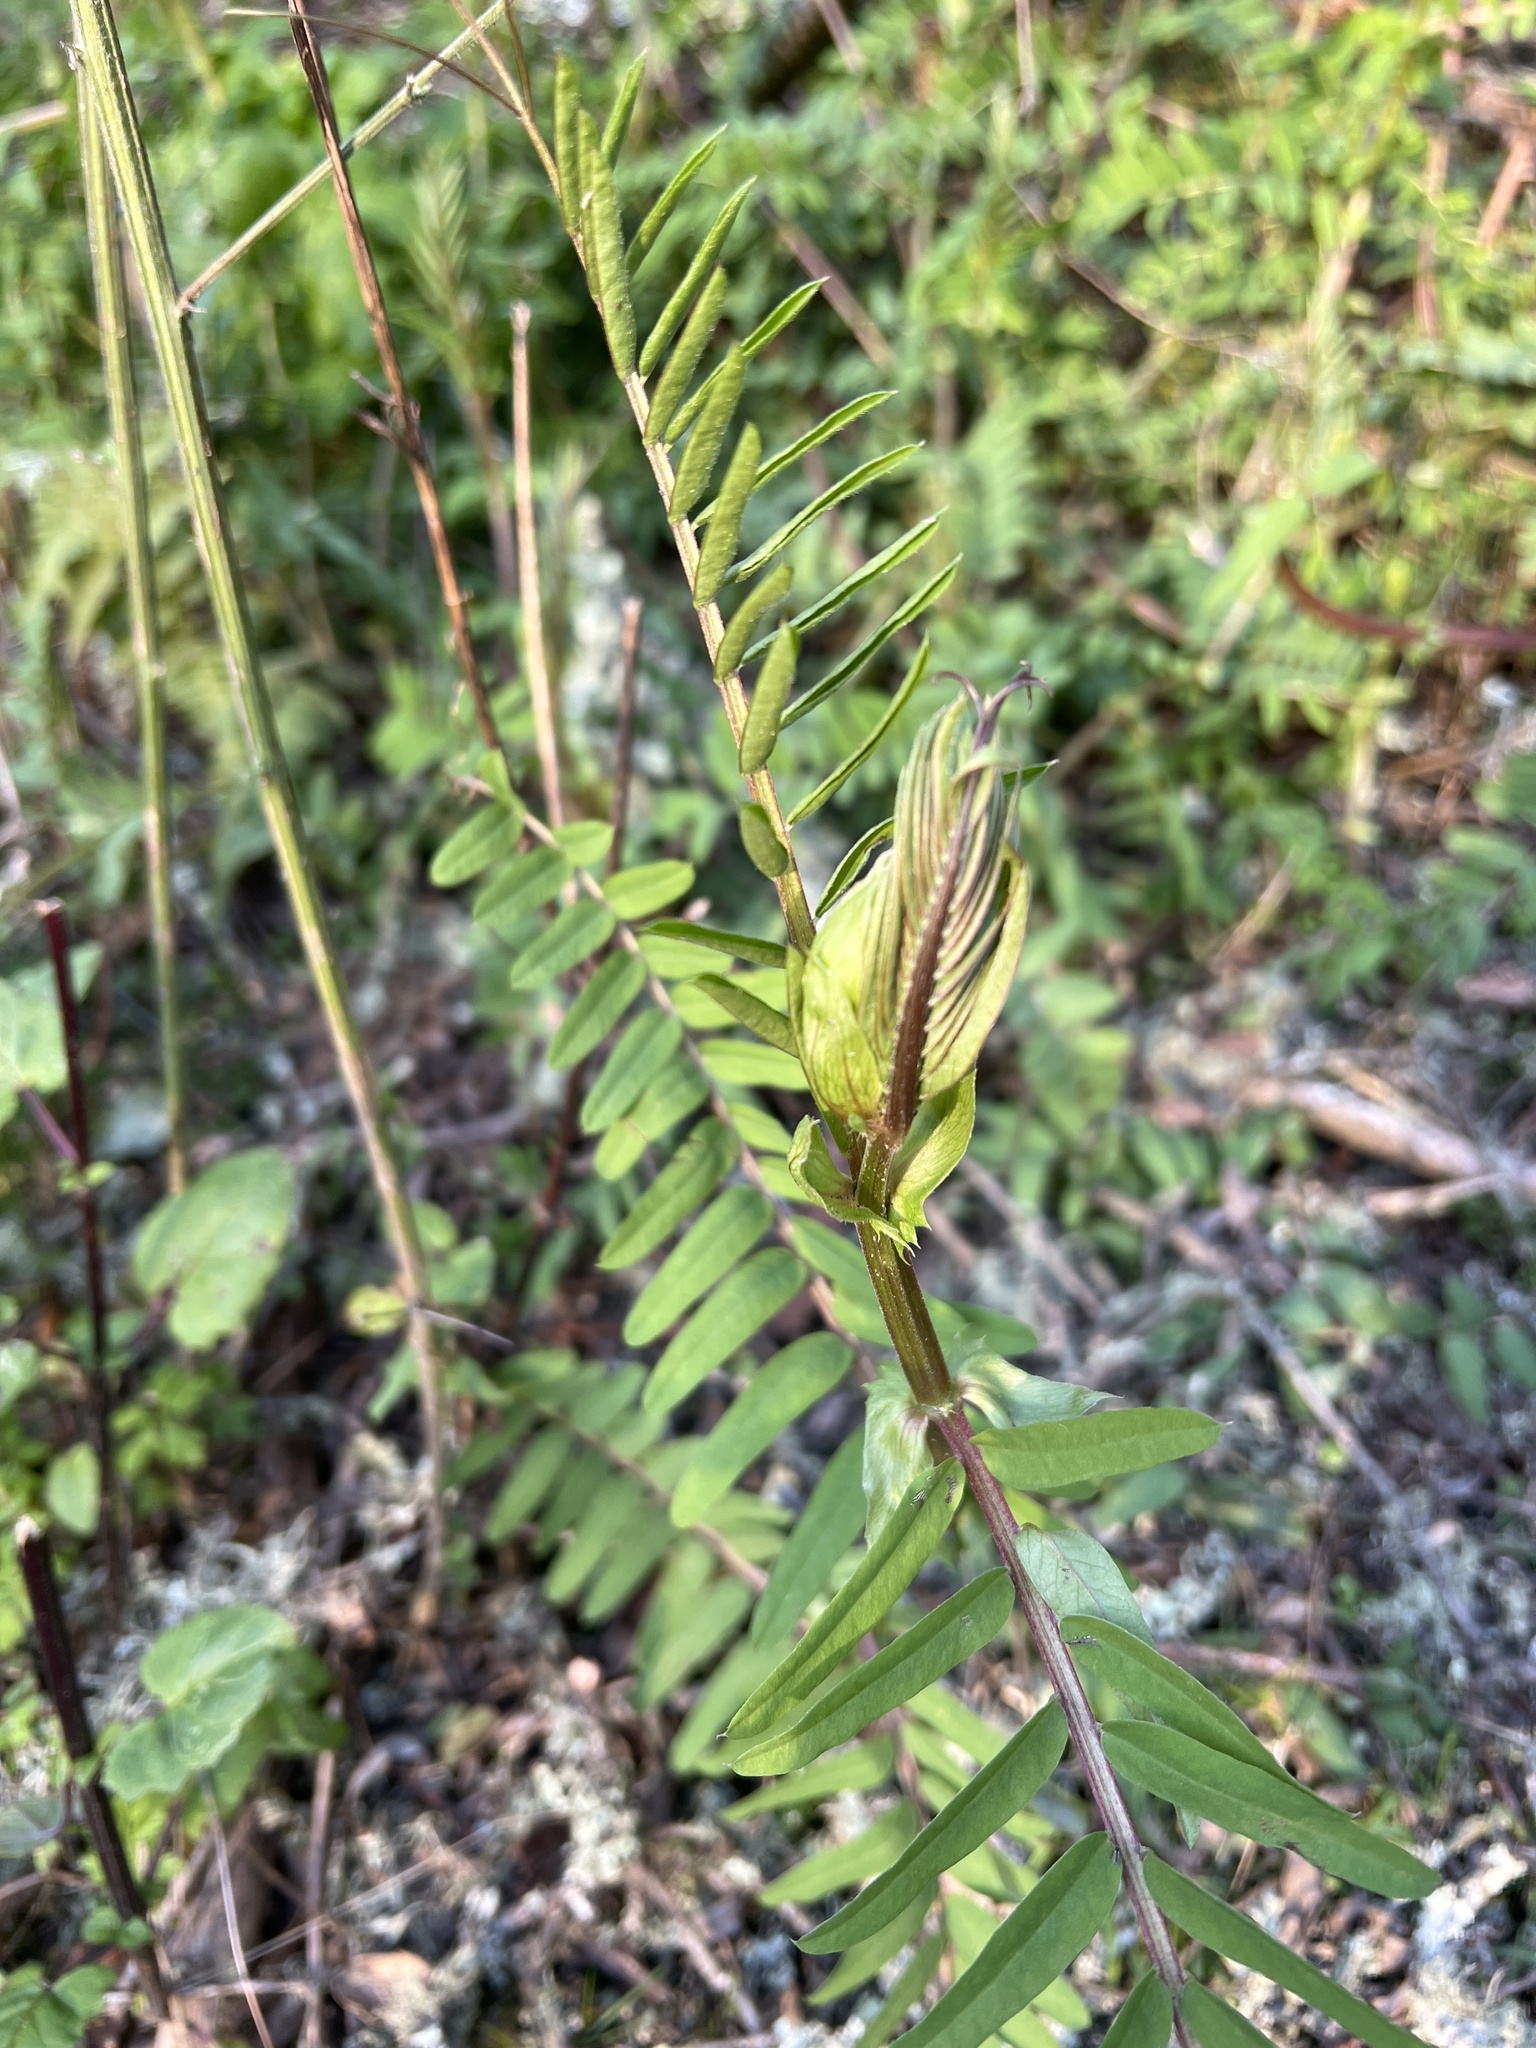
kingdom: Plantae
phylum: Tracheophyta
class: Magnoliopsida
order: Fabales
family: Fabaceae
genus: Vicia
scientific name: Vicia
